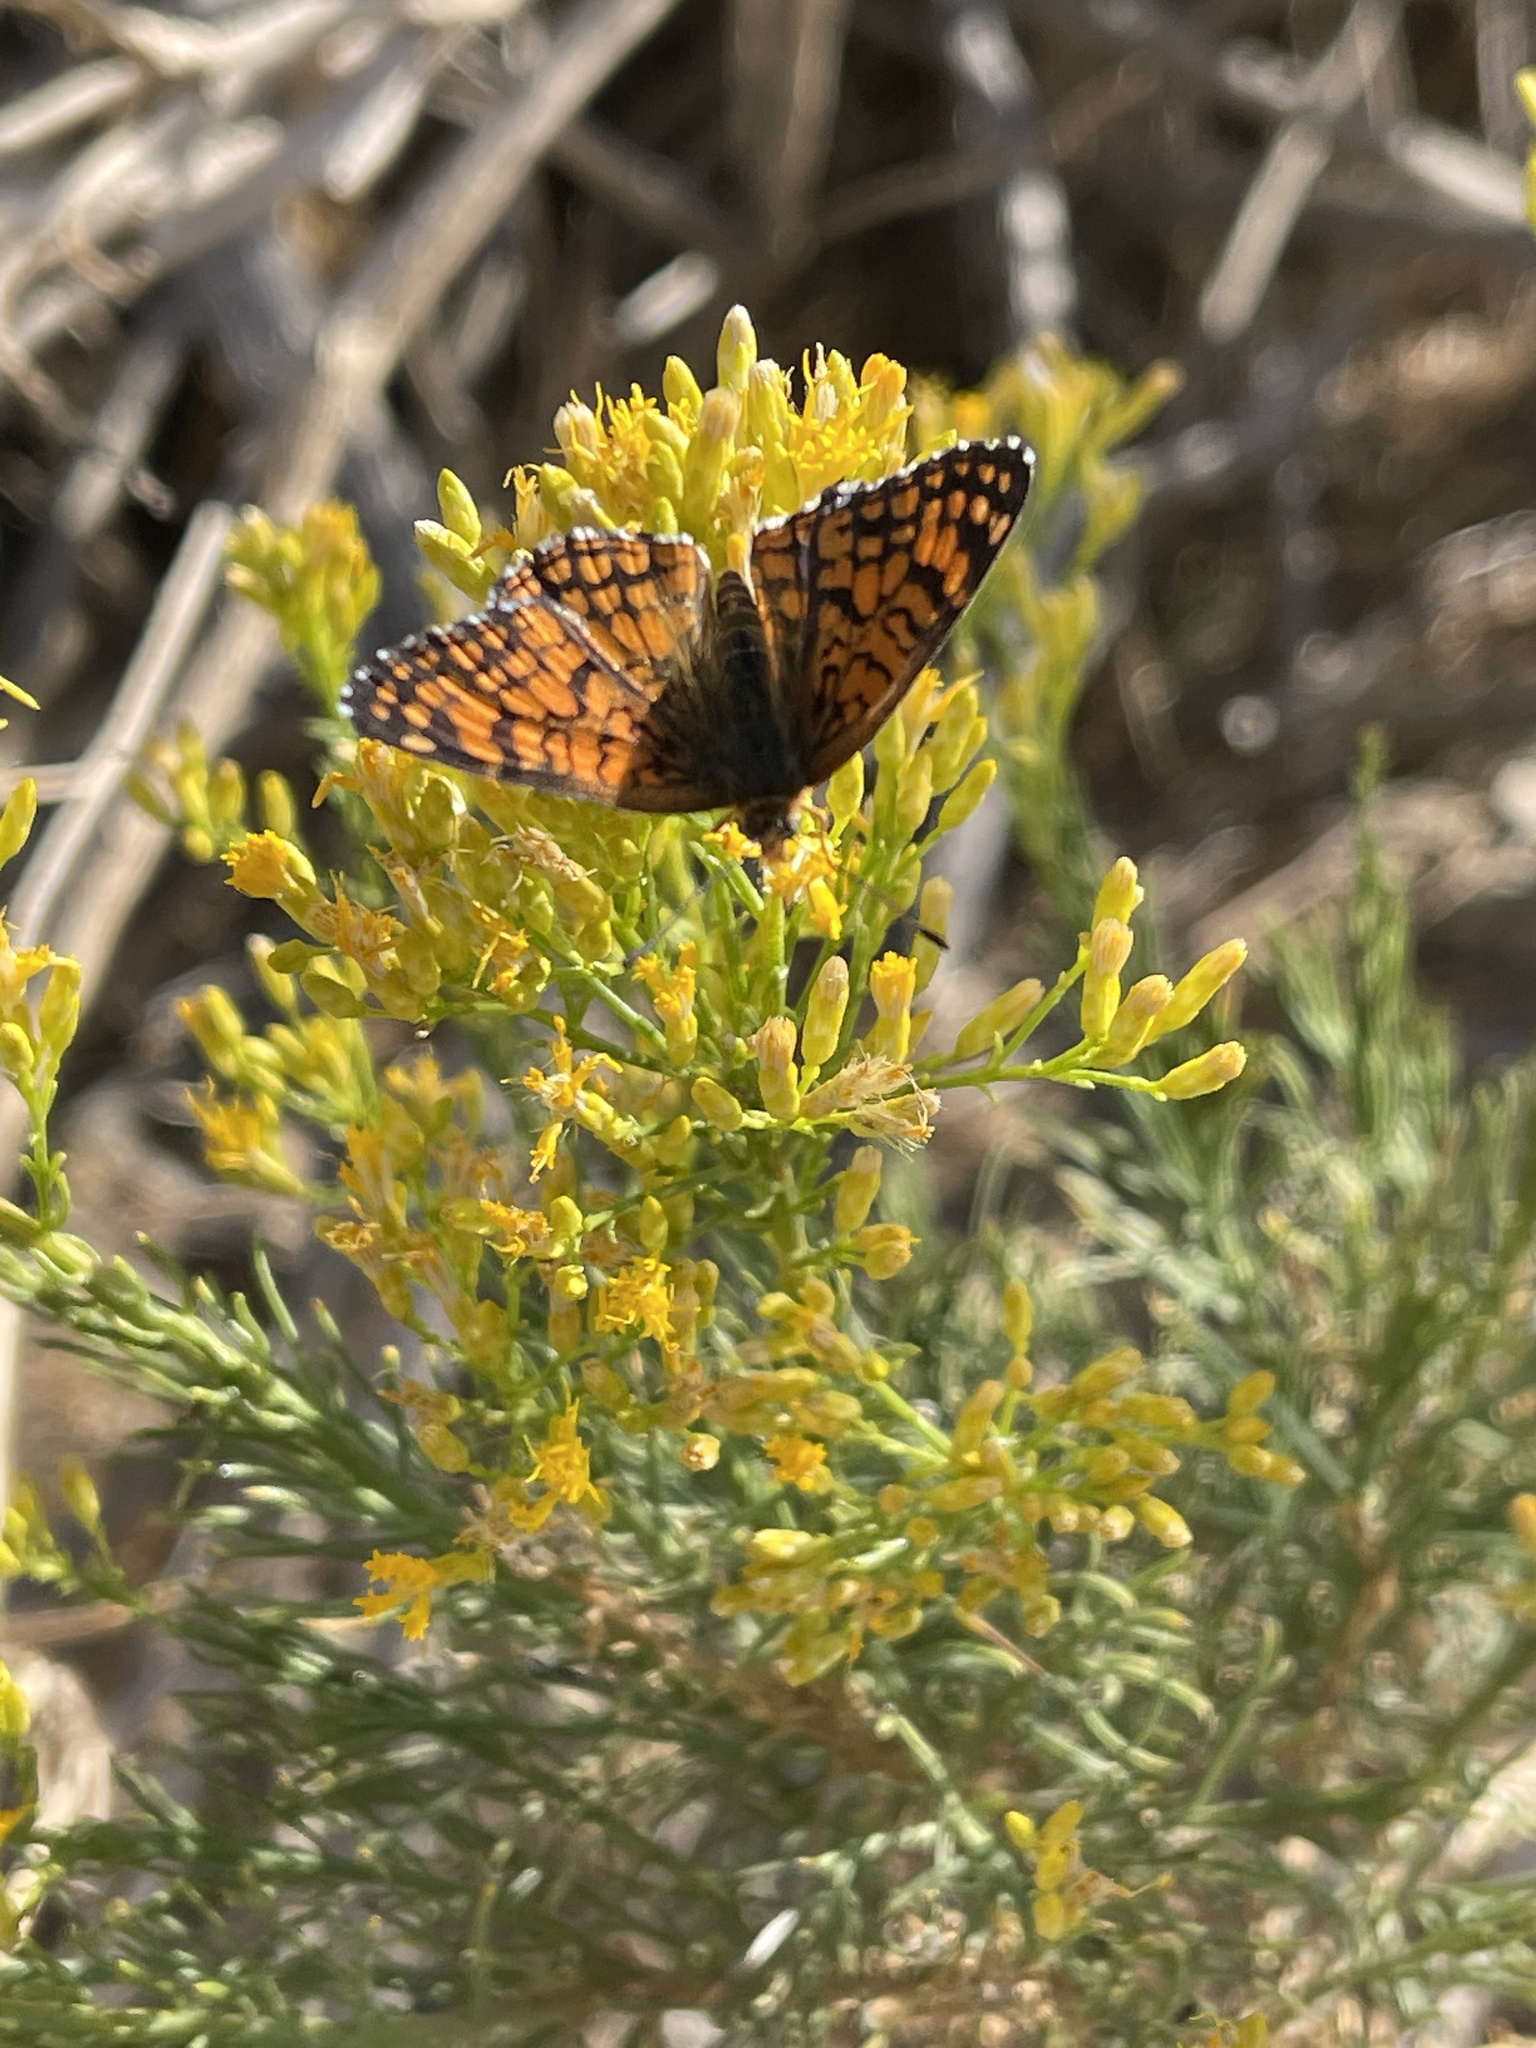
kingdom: Animalia
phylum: Arthropoda
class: Insecta
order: Lepidoptera
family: Nymphalidae
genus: Chlosyne
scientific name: Chlosyne acastus
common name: Sagebrush checkerspot
